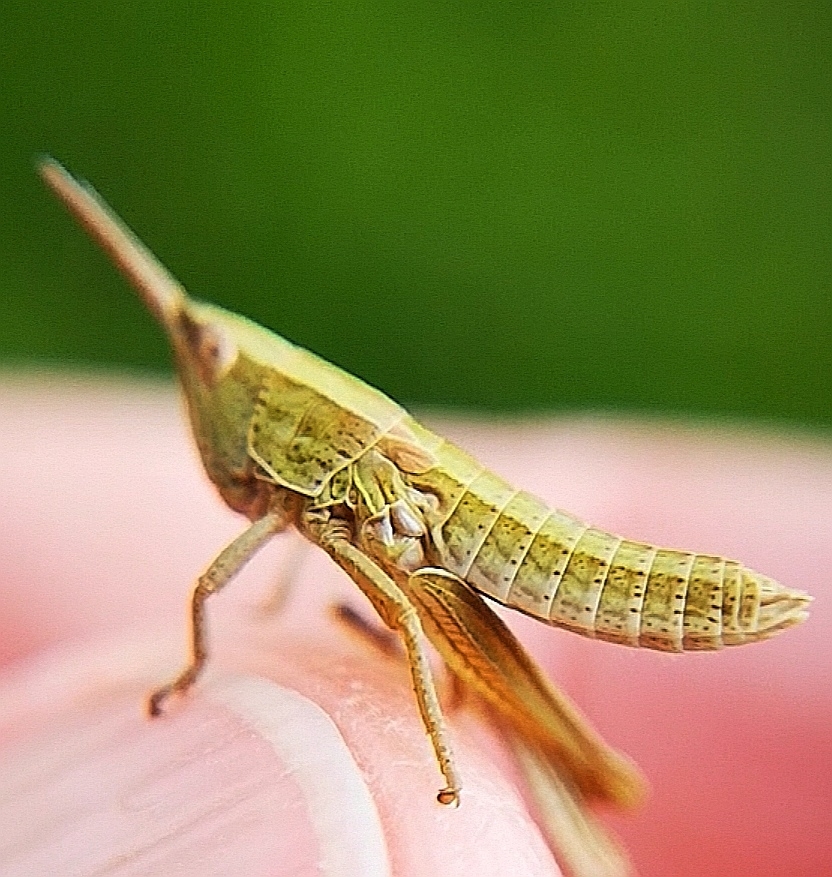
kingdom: Animalia
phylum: Arthropoda
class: Insecta
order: Orthoptera
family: Acrididae
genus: Euthystira
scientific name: Euthystira brachyptera
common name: Small gold grasshopper
